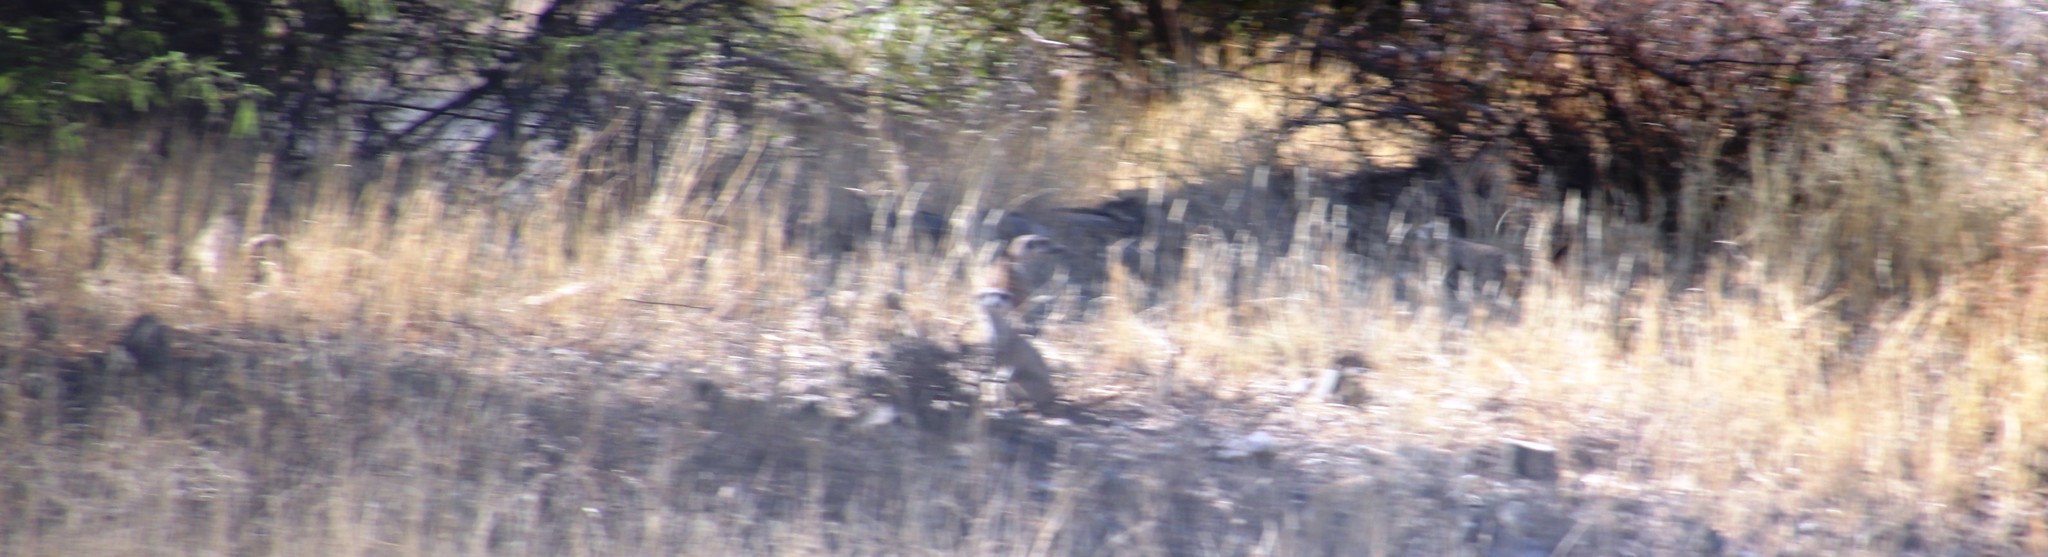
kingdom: Animalia
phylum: Chordata
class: Mammalia
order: Carnivora
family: Herpestidae
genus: Suricata
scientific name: Suricata suricatta
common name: Meerkat
